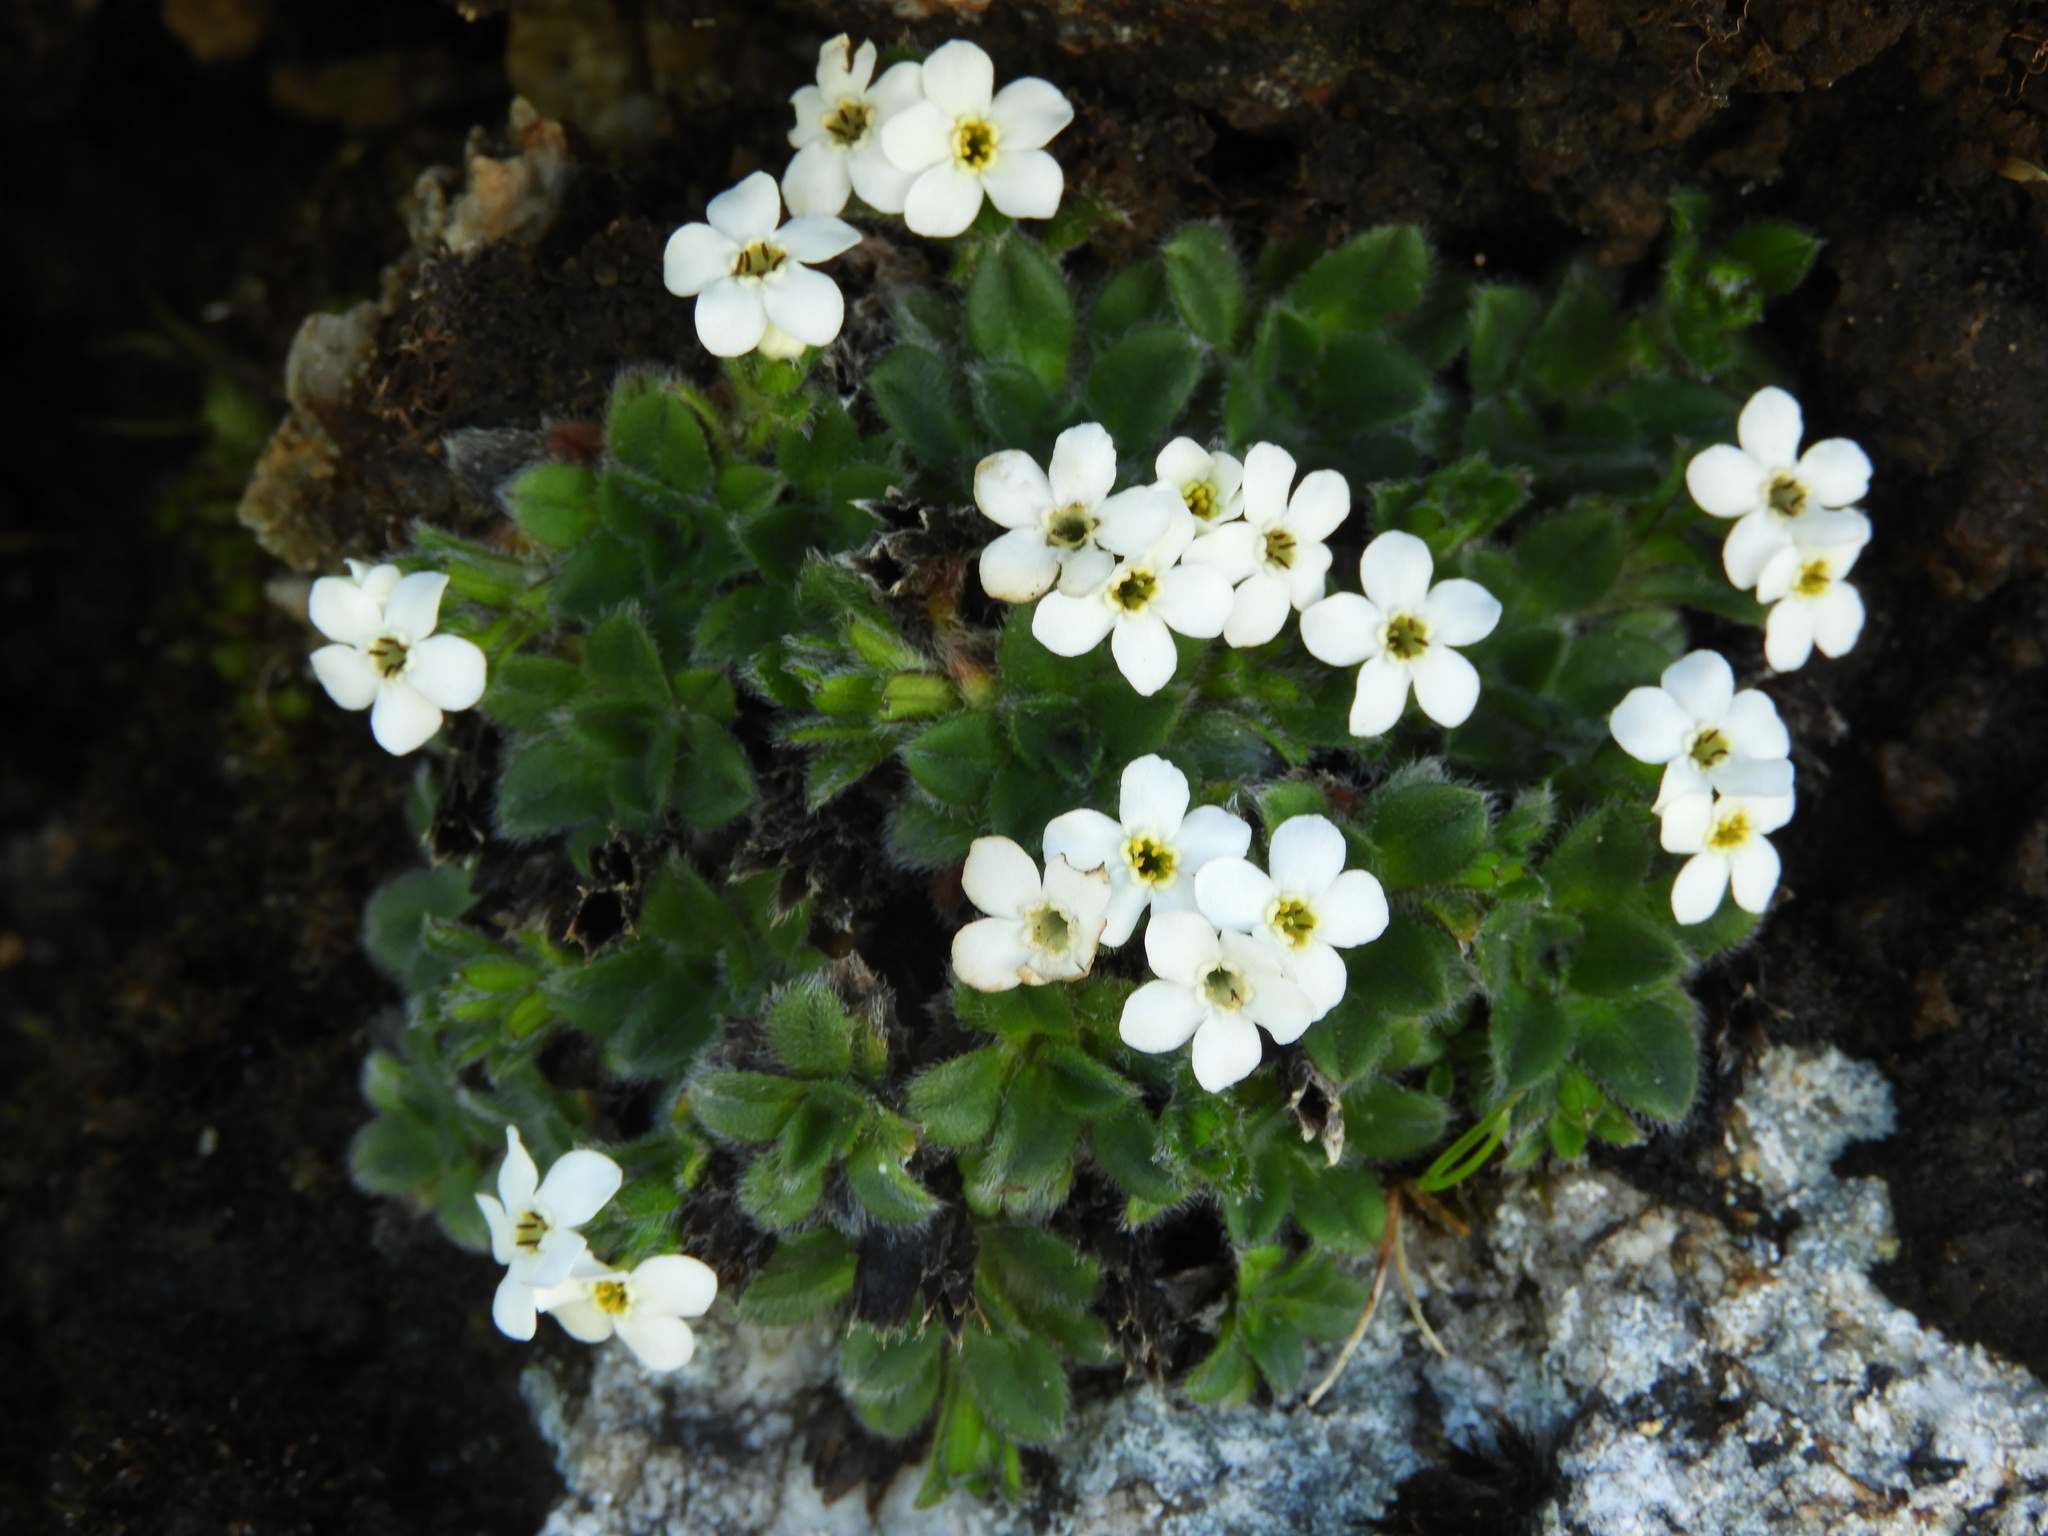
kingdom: Plantae
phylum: Tracheophyta
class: Magnoliopsida
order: Boraginales
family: Boraginaceae
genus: Myosotis
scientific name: Myosotis retrorsa
